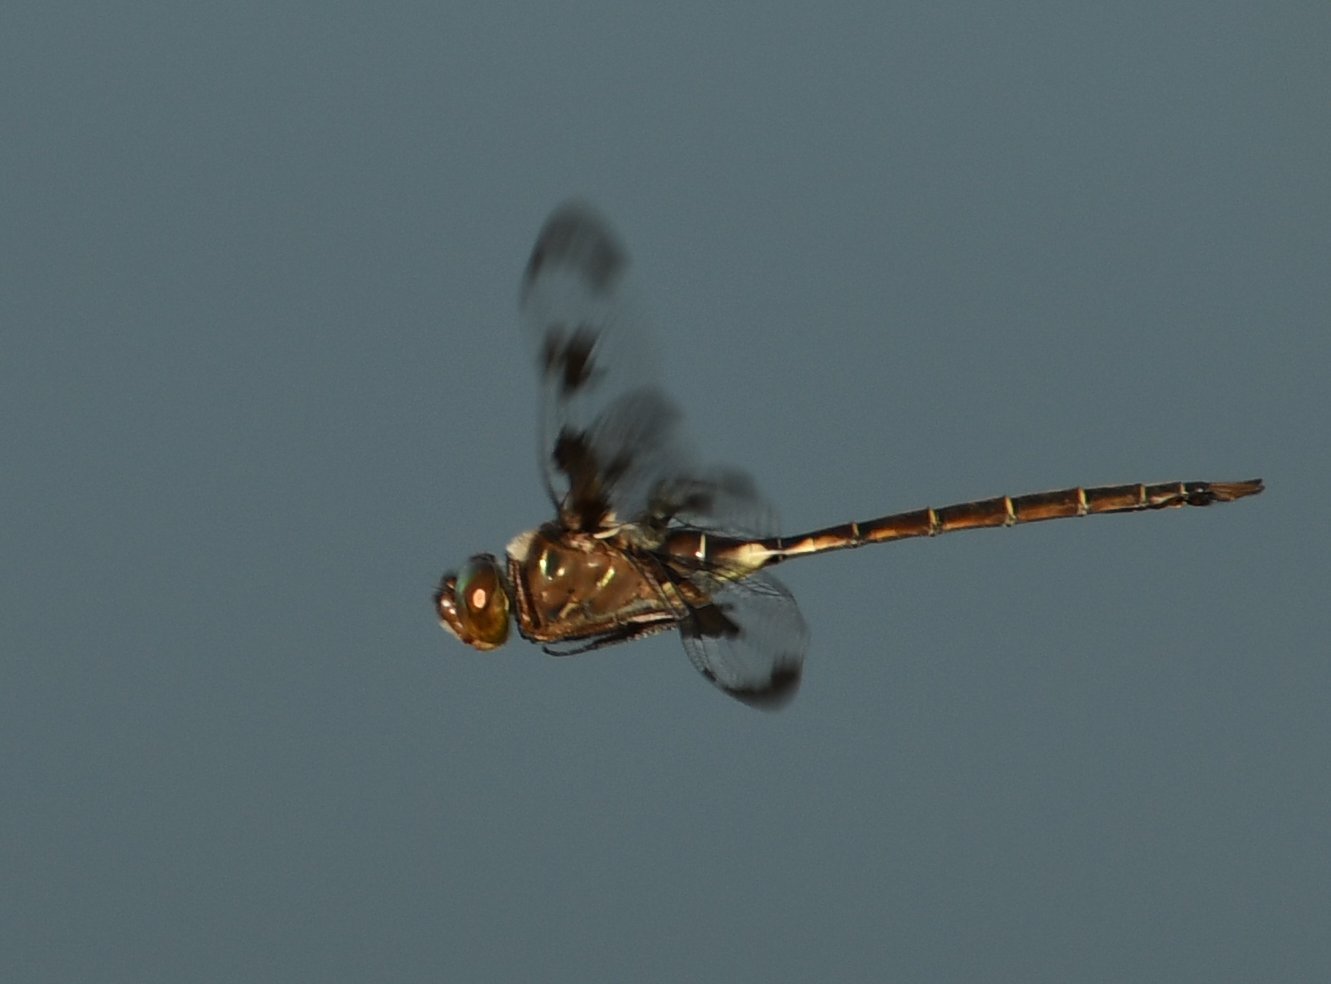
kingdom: Animalia
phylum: Arthropoda
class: Insecta
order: Odonata
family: Corduliidae
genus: Epitheca
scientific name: Epitheca princeps
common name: Prince baskettail
